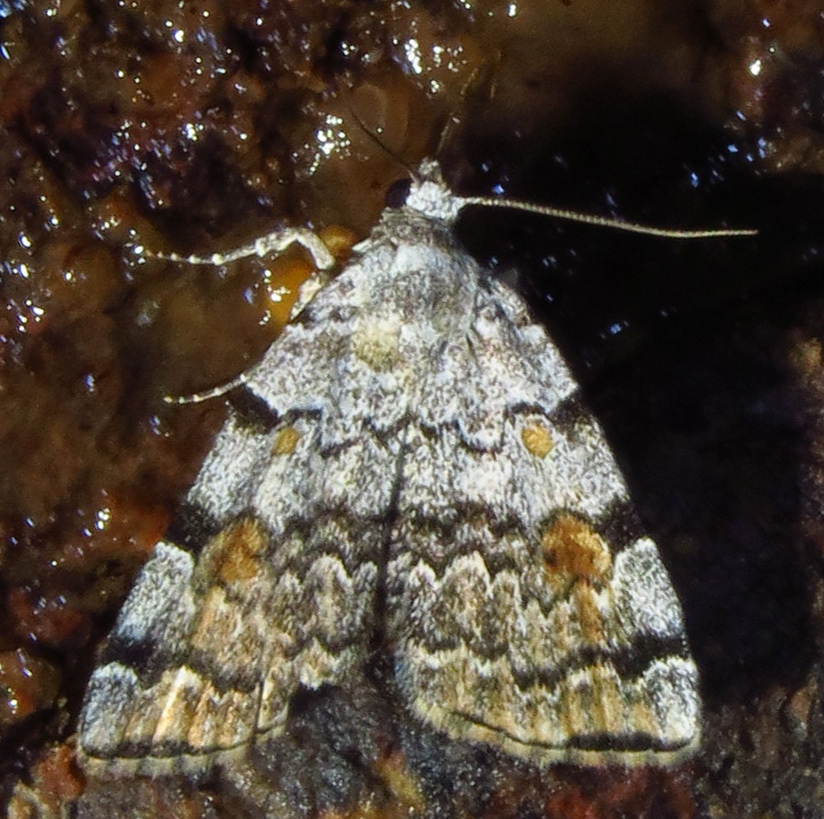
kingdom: Animalia
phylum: Arthropoda
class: Insecta
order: Lepidoptera
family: Erebidae
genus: Idia
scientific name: Idia americalis
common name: American idia moth
